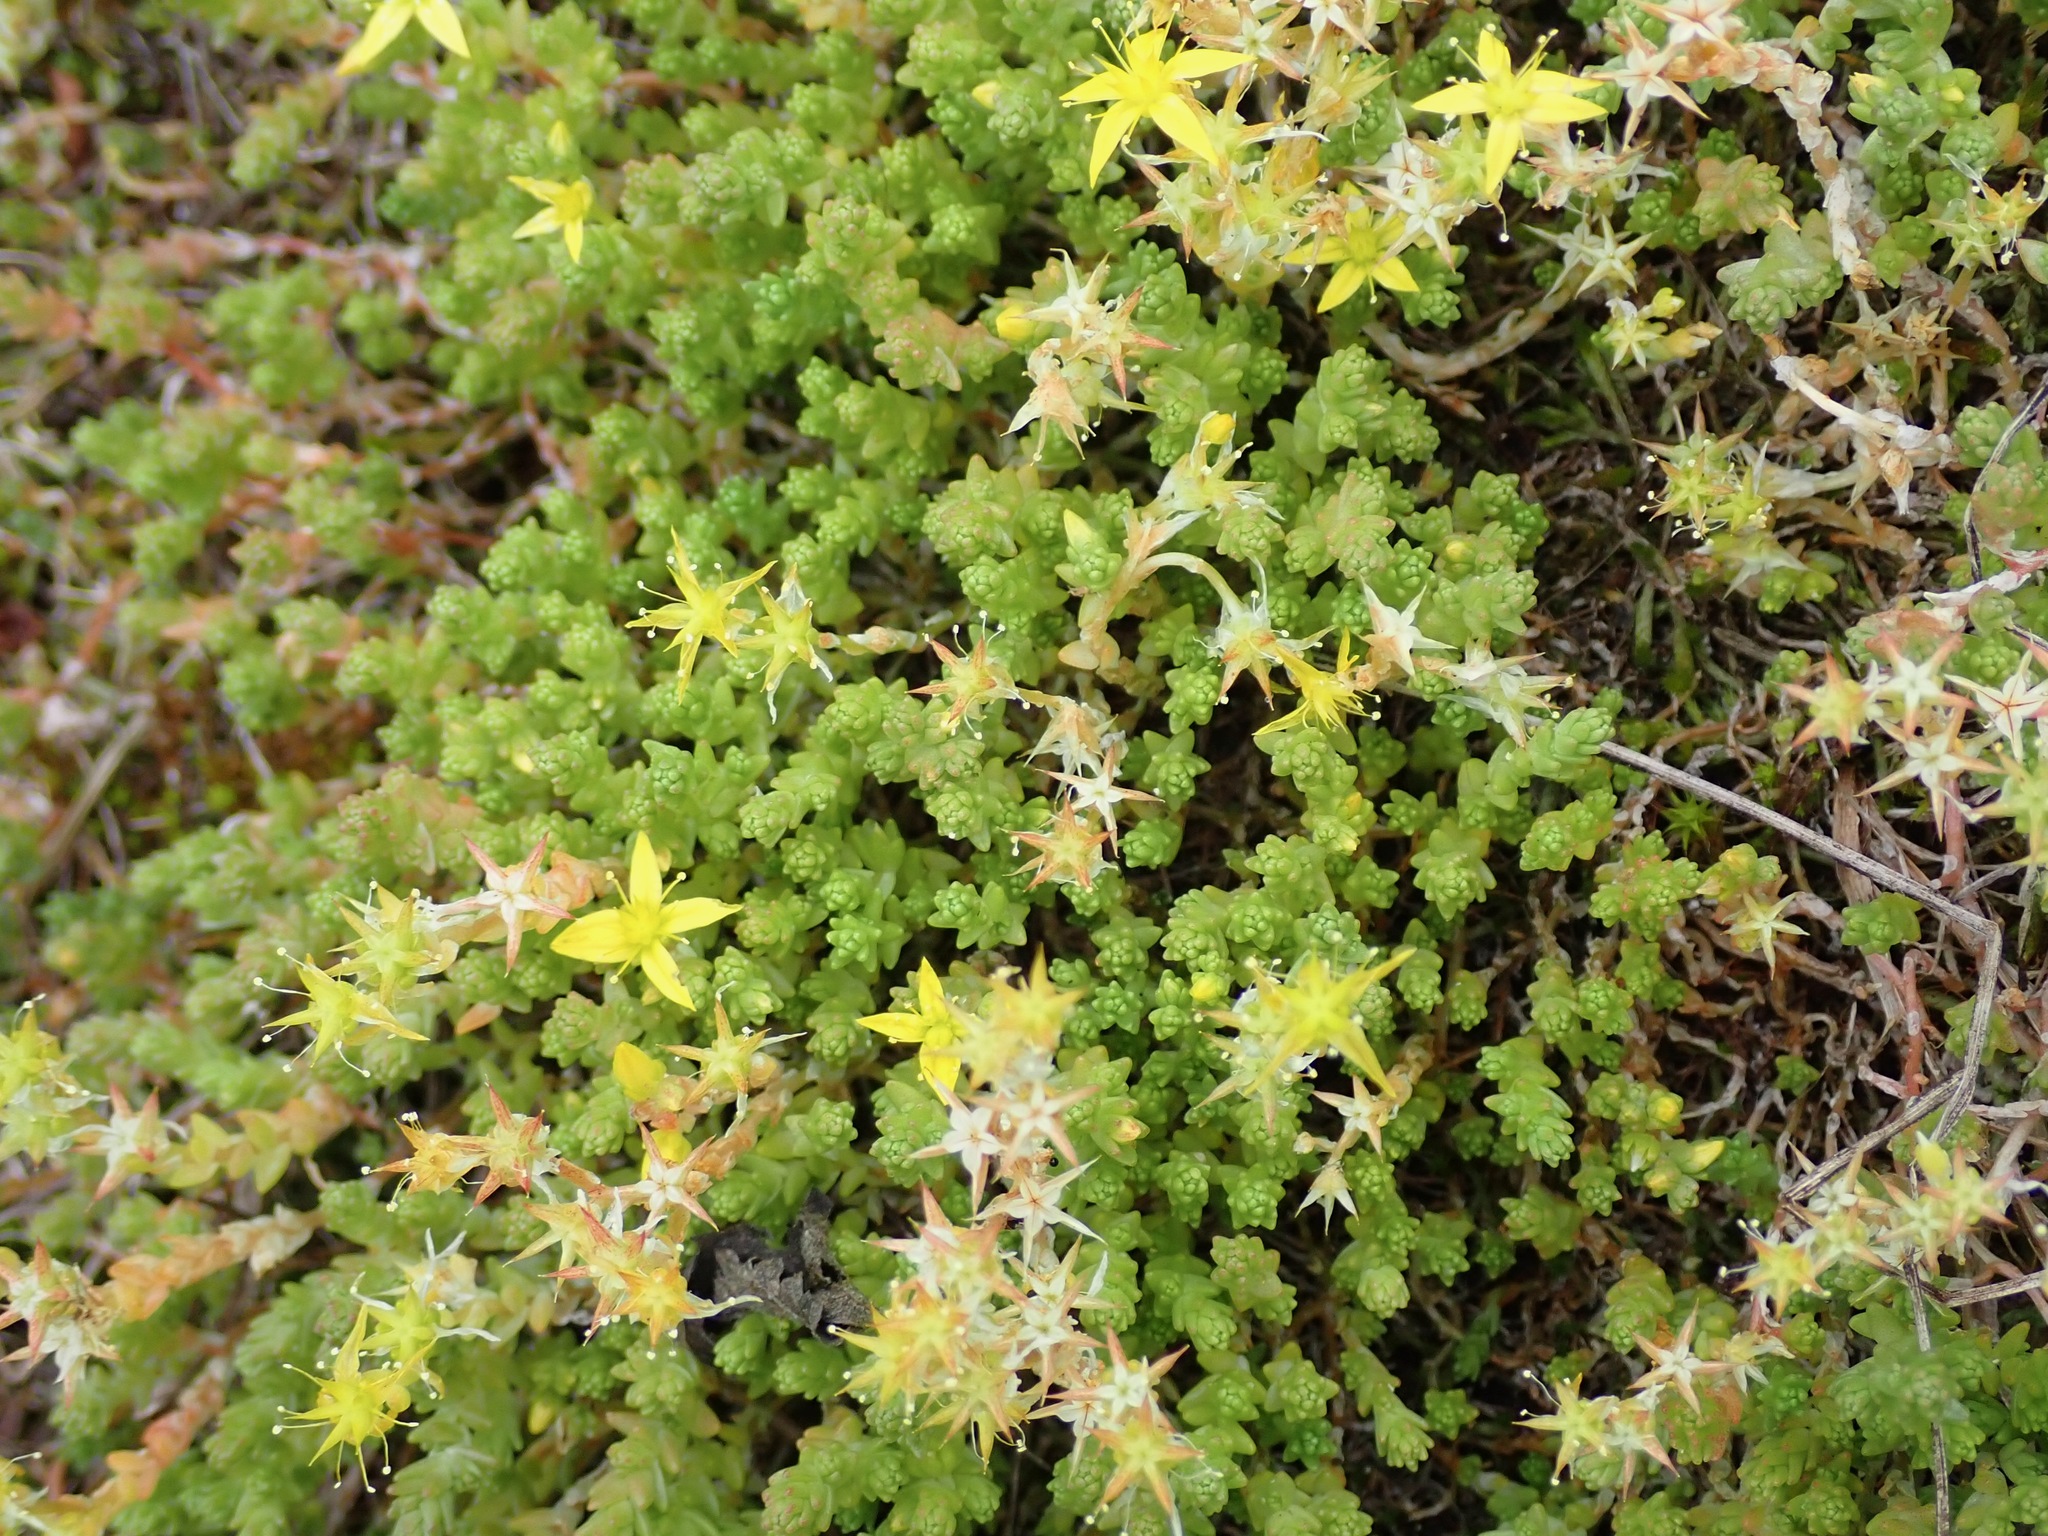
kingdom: Plantae
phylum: Tracheophyta
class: Magnoliopsida
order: Saxifragales
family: Crassulaceae
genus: Sedum
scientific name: Sedum acre
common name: Biting stonecrop
